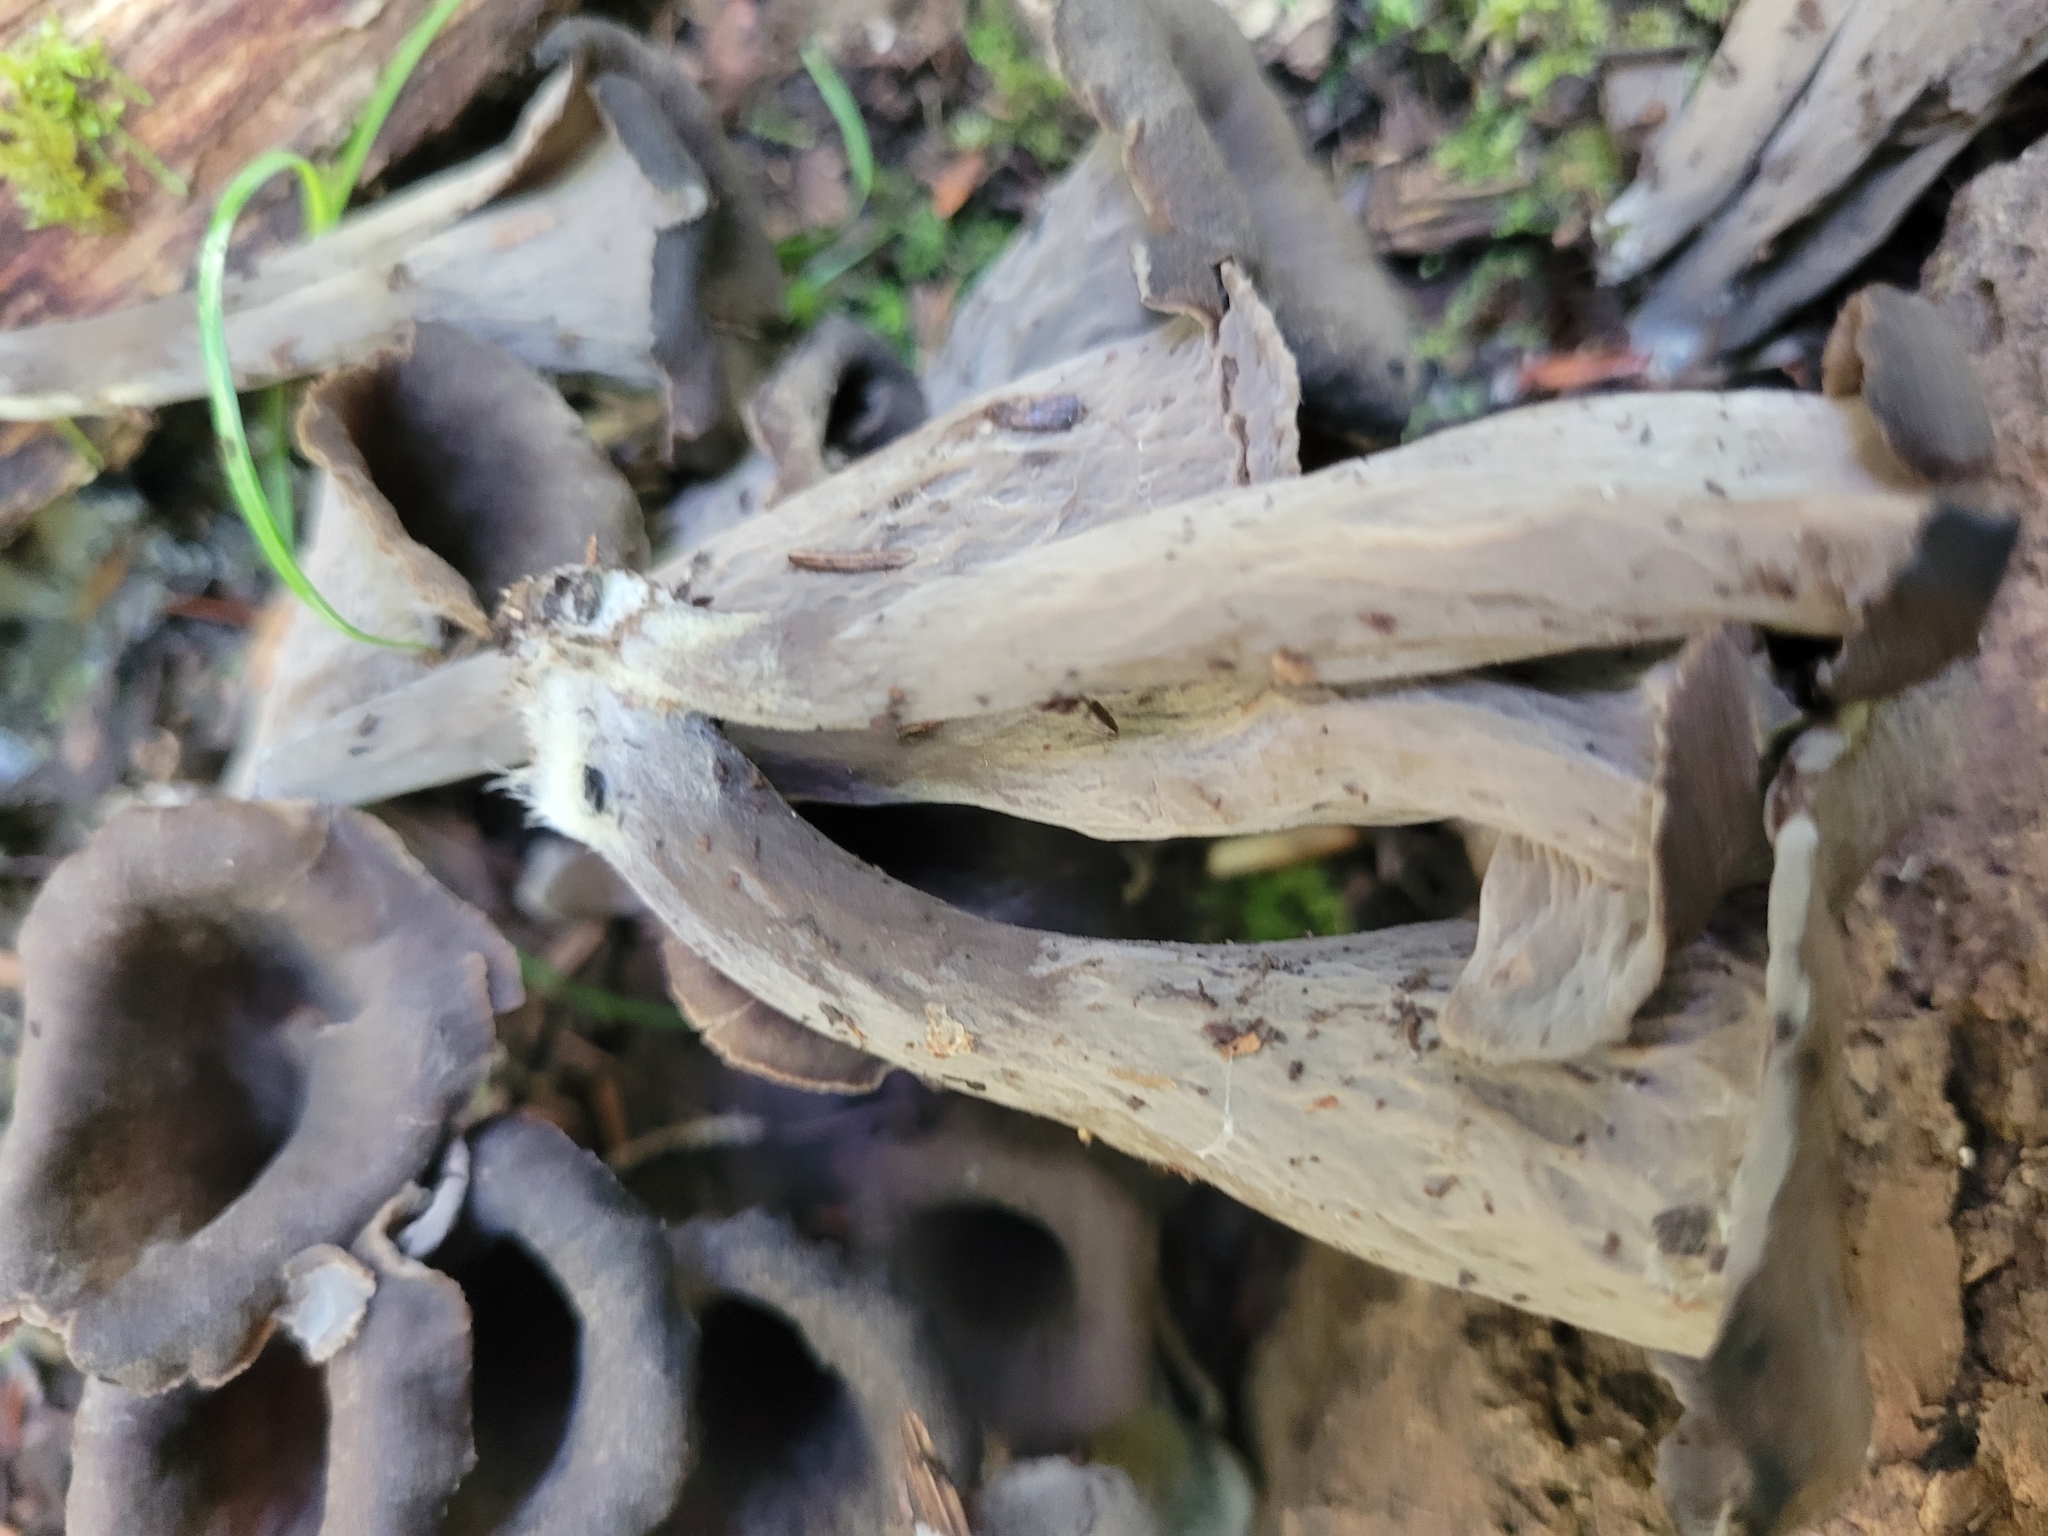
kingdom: Fungi
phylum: Basidiomycota
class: Agaricomycetes
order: Cantharellales
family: Hydnaceae
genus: Craterellus
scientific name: Craterellus cornucopioides
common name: Horn of plenty
